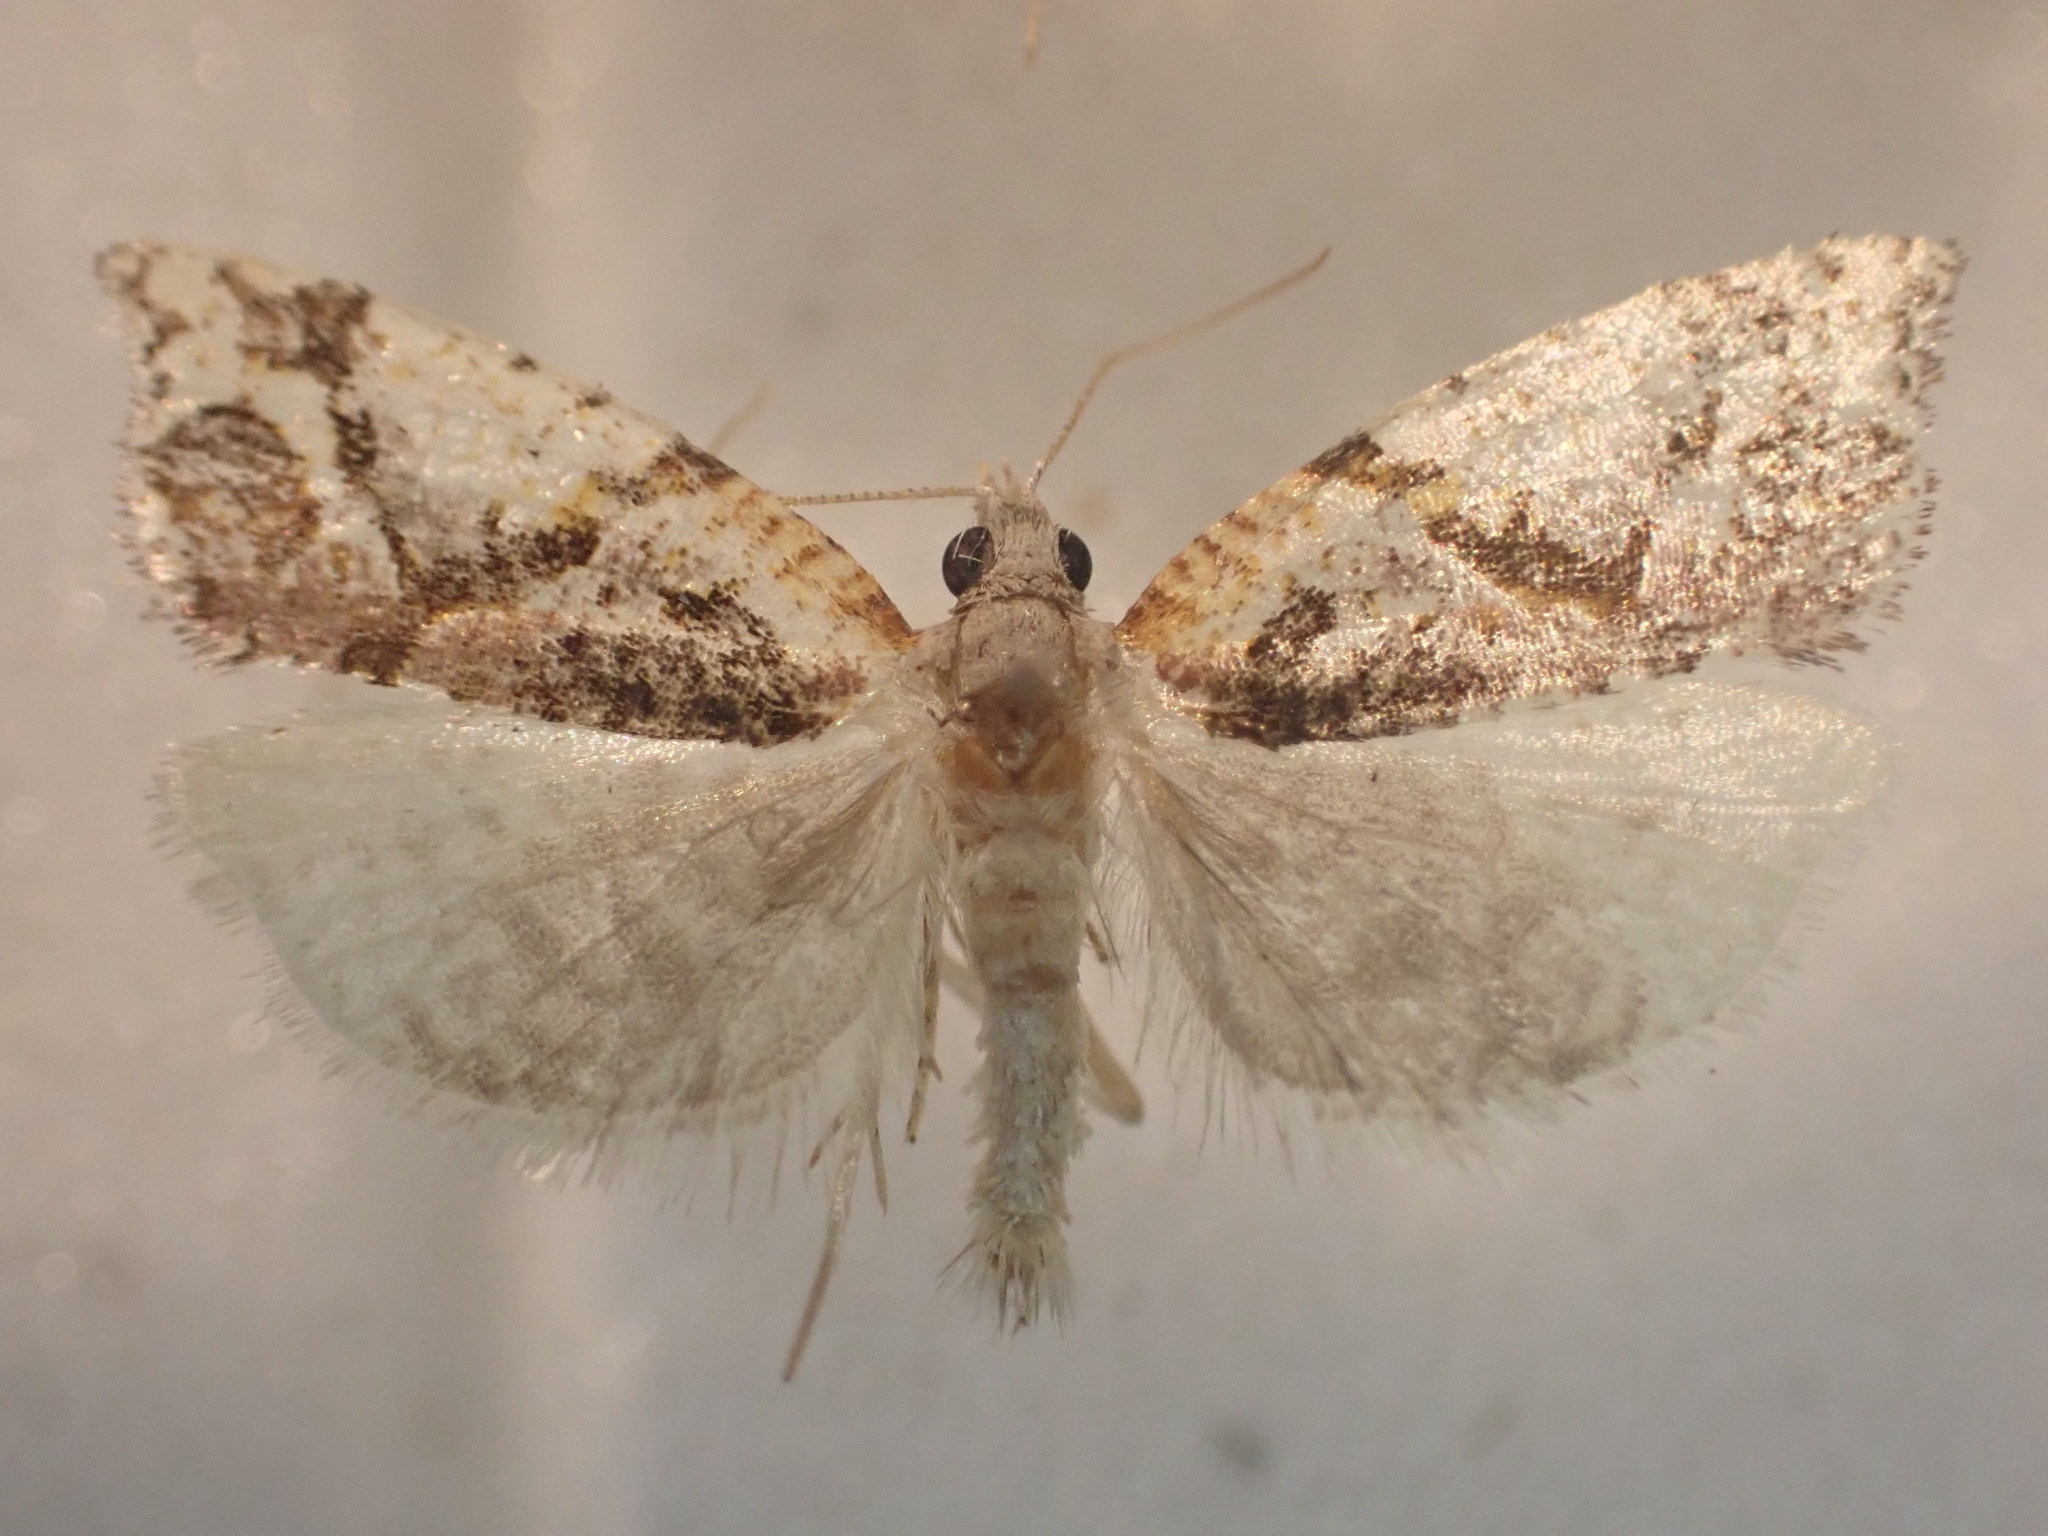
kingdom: Animalia
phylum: Arthropoda
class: Insecta
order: Lepidoptera
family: Tortricidae
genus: Pyrgotis
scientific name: Pyrgotis plagiatana
